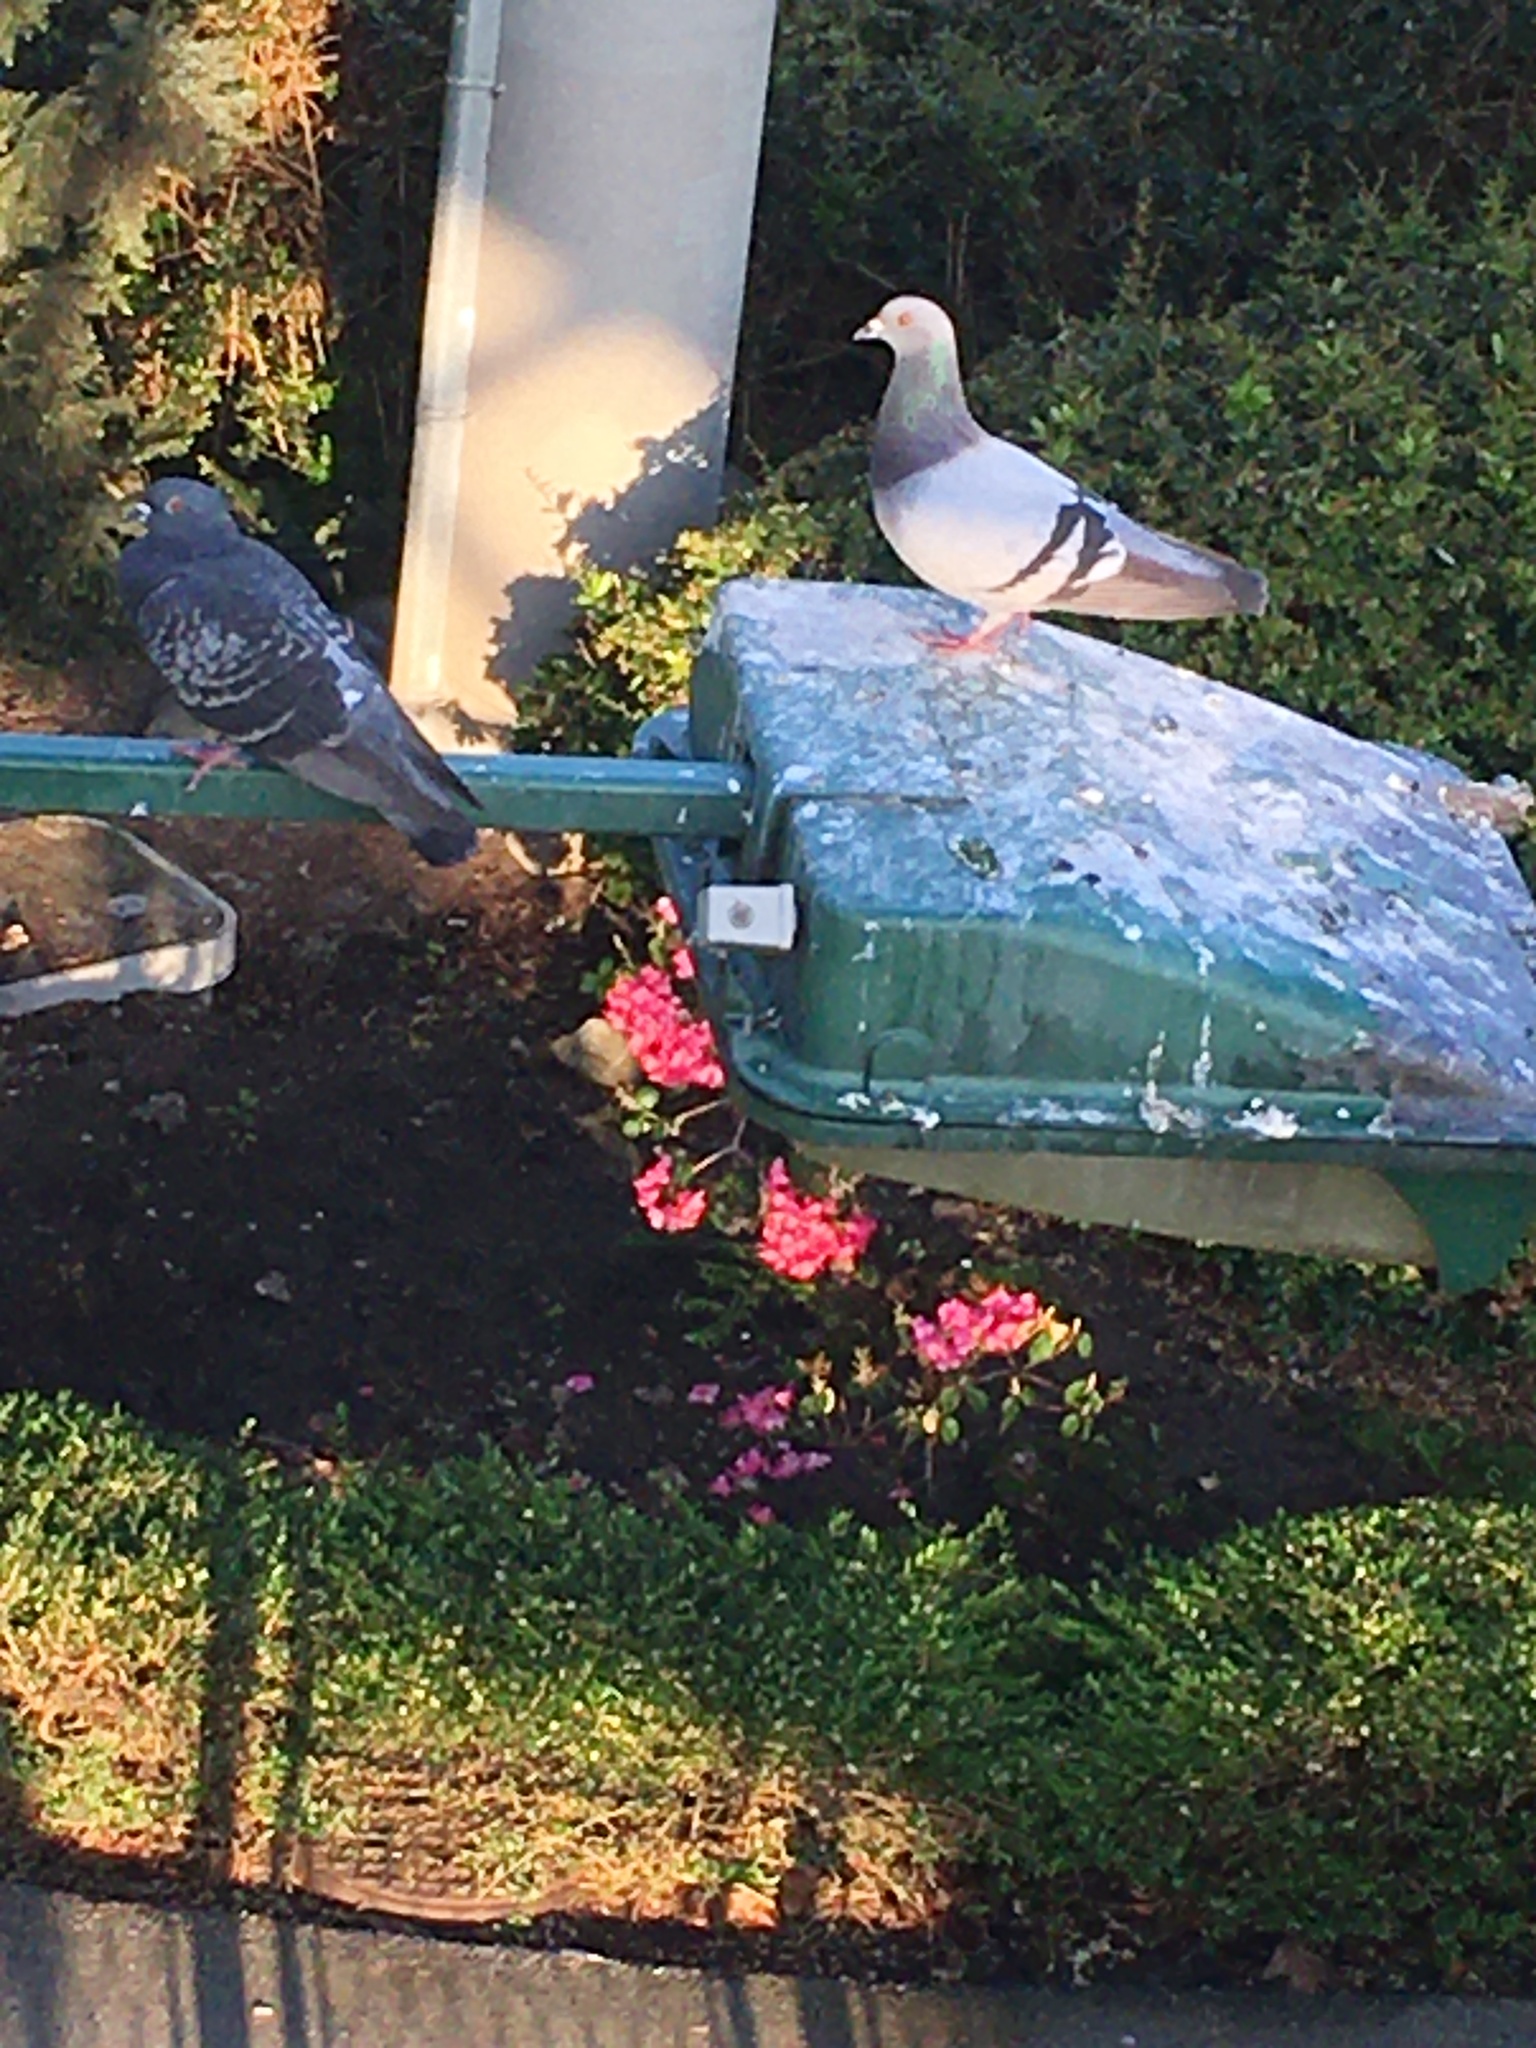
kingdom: Animalia
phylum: Chordata
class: Aves
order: Columbiformes
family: Columbidae
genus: Columba
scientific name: Columba livia
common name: Rock pigeon
